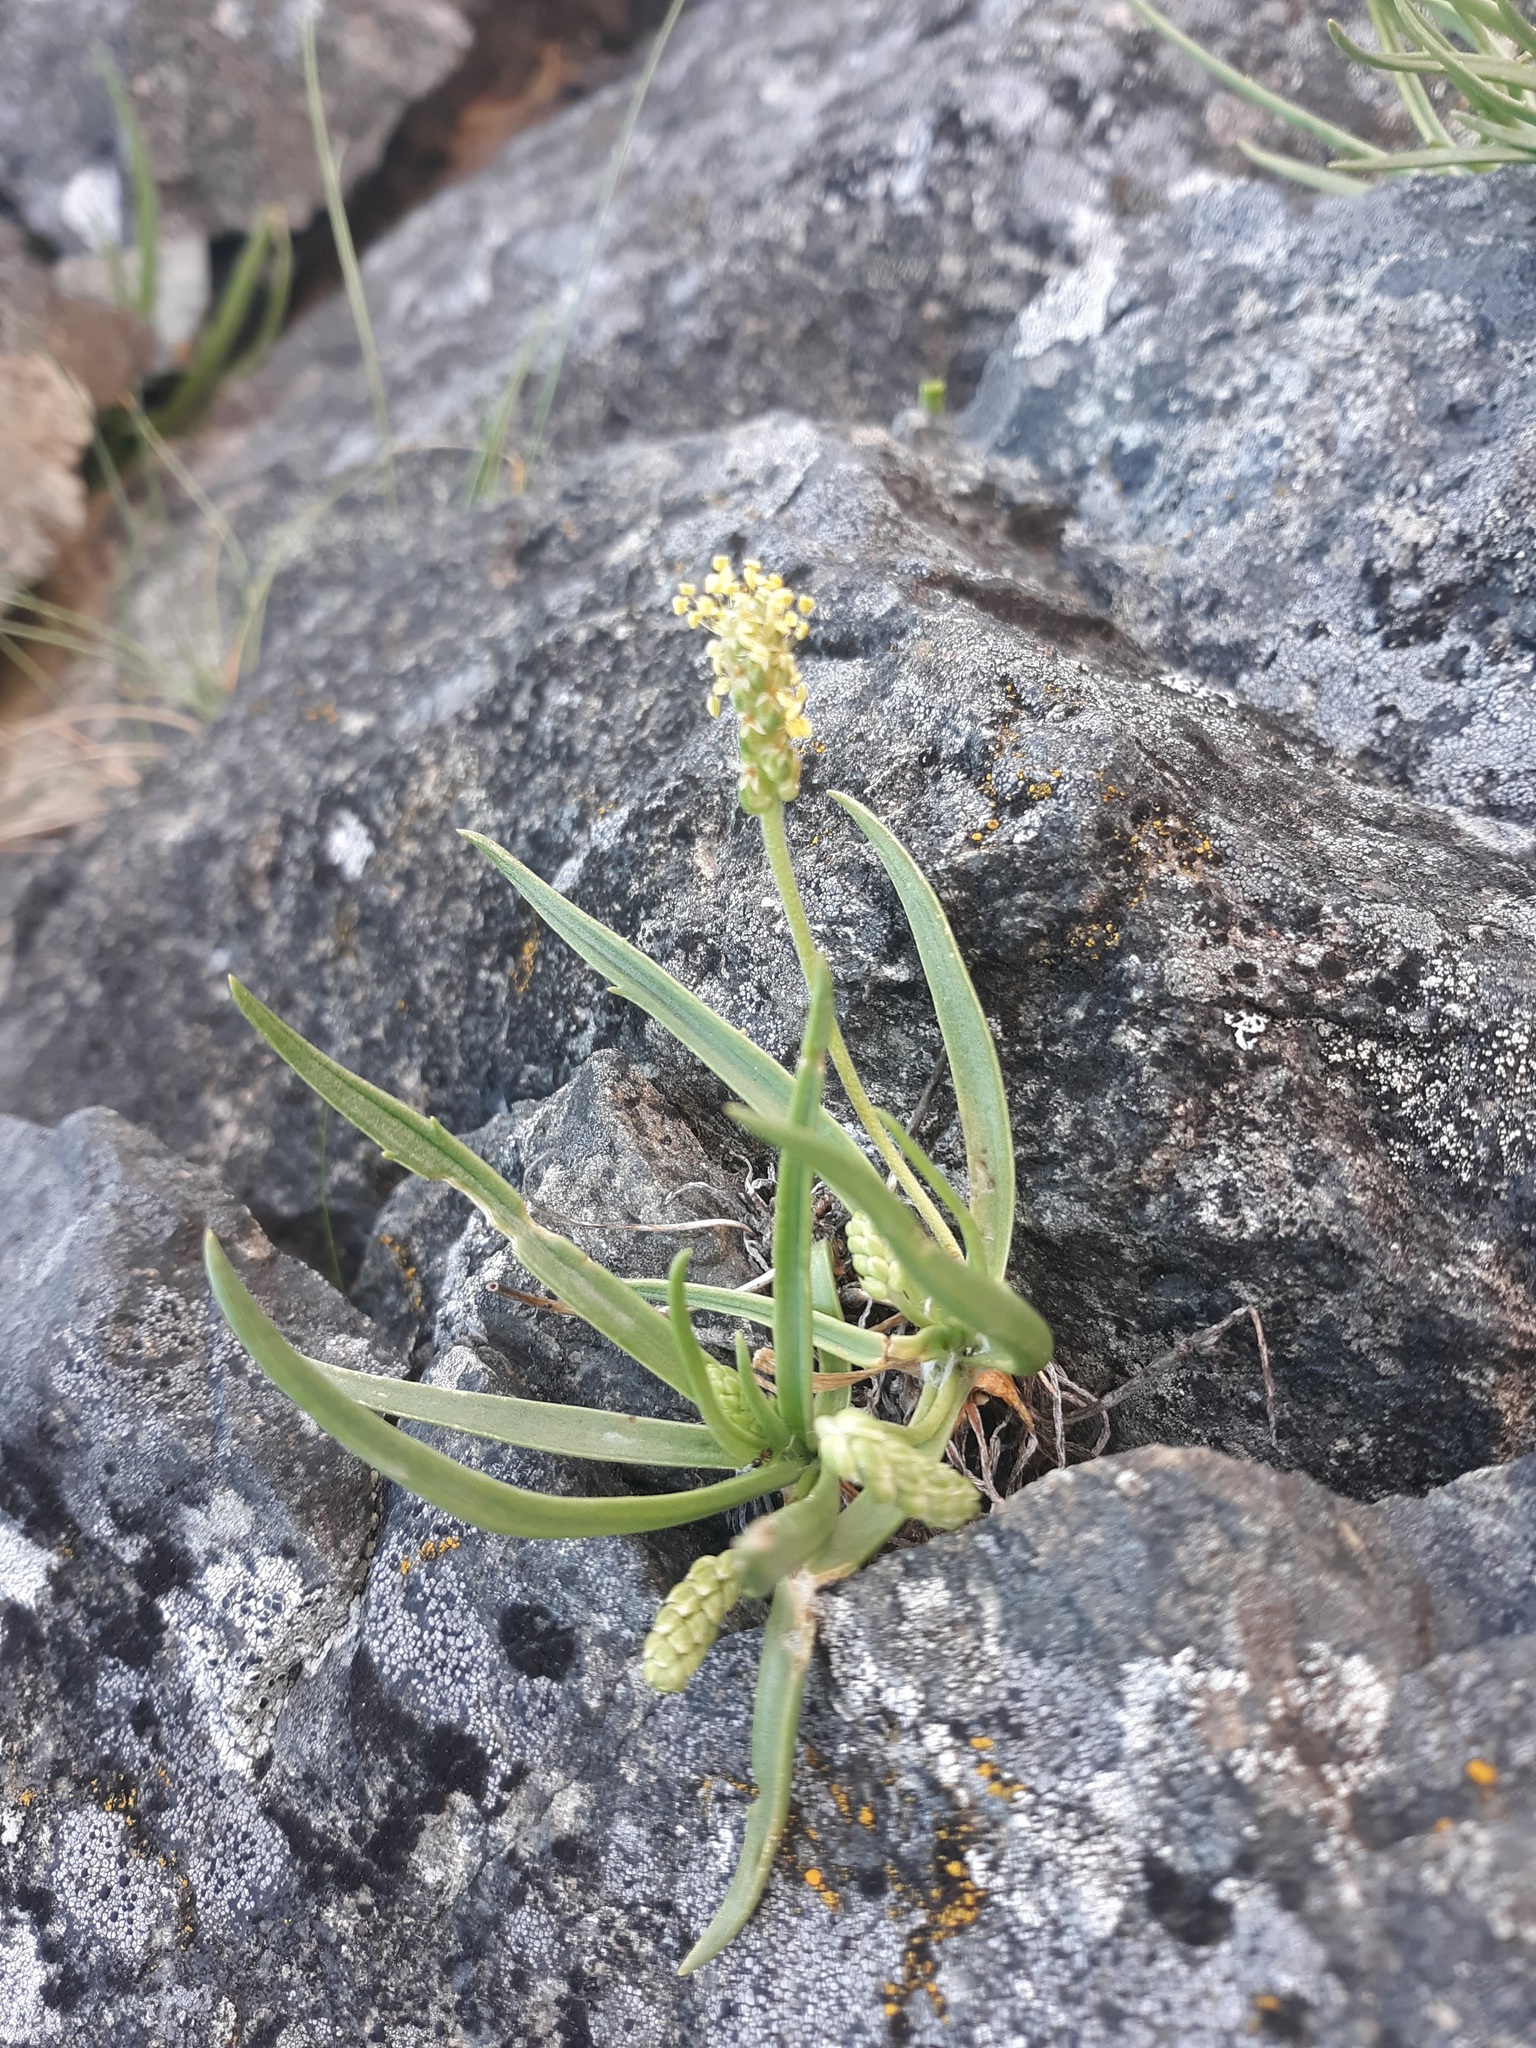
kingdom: Plantae
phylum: Tracheophyta
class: Magnoliopsida
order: Lamiales
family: Plantaginaceae
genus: Plantago
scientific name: Plantago maritima
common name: Sea plantain
